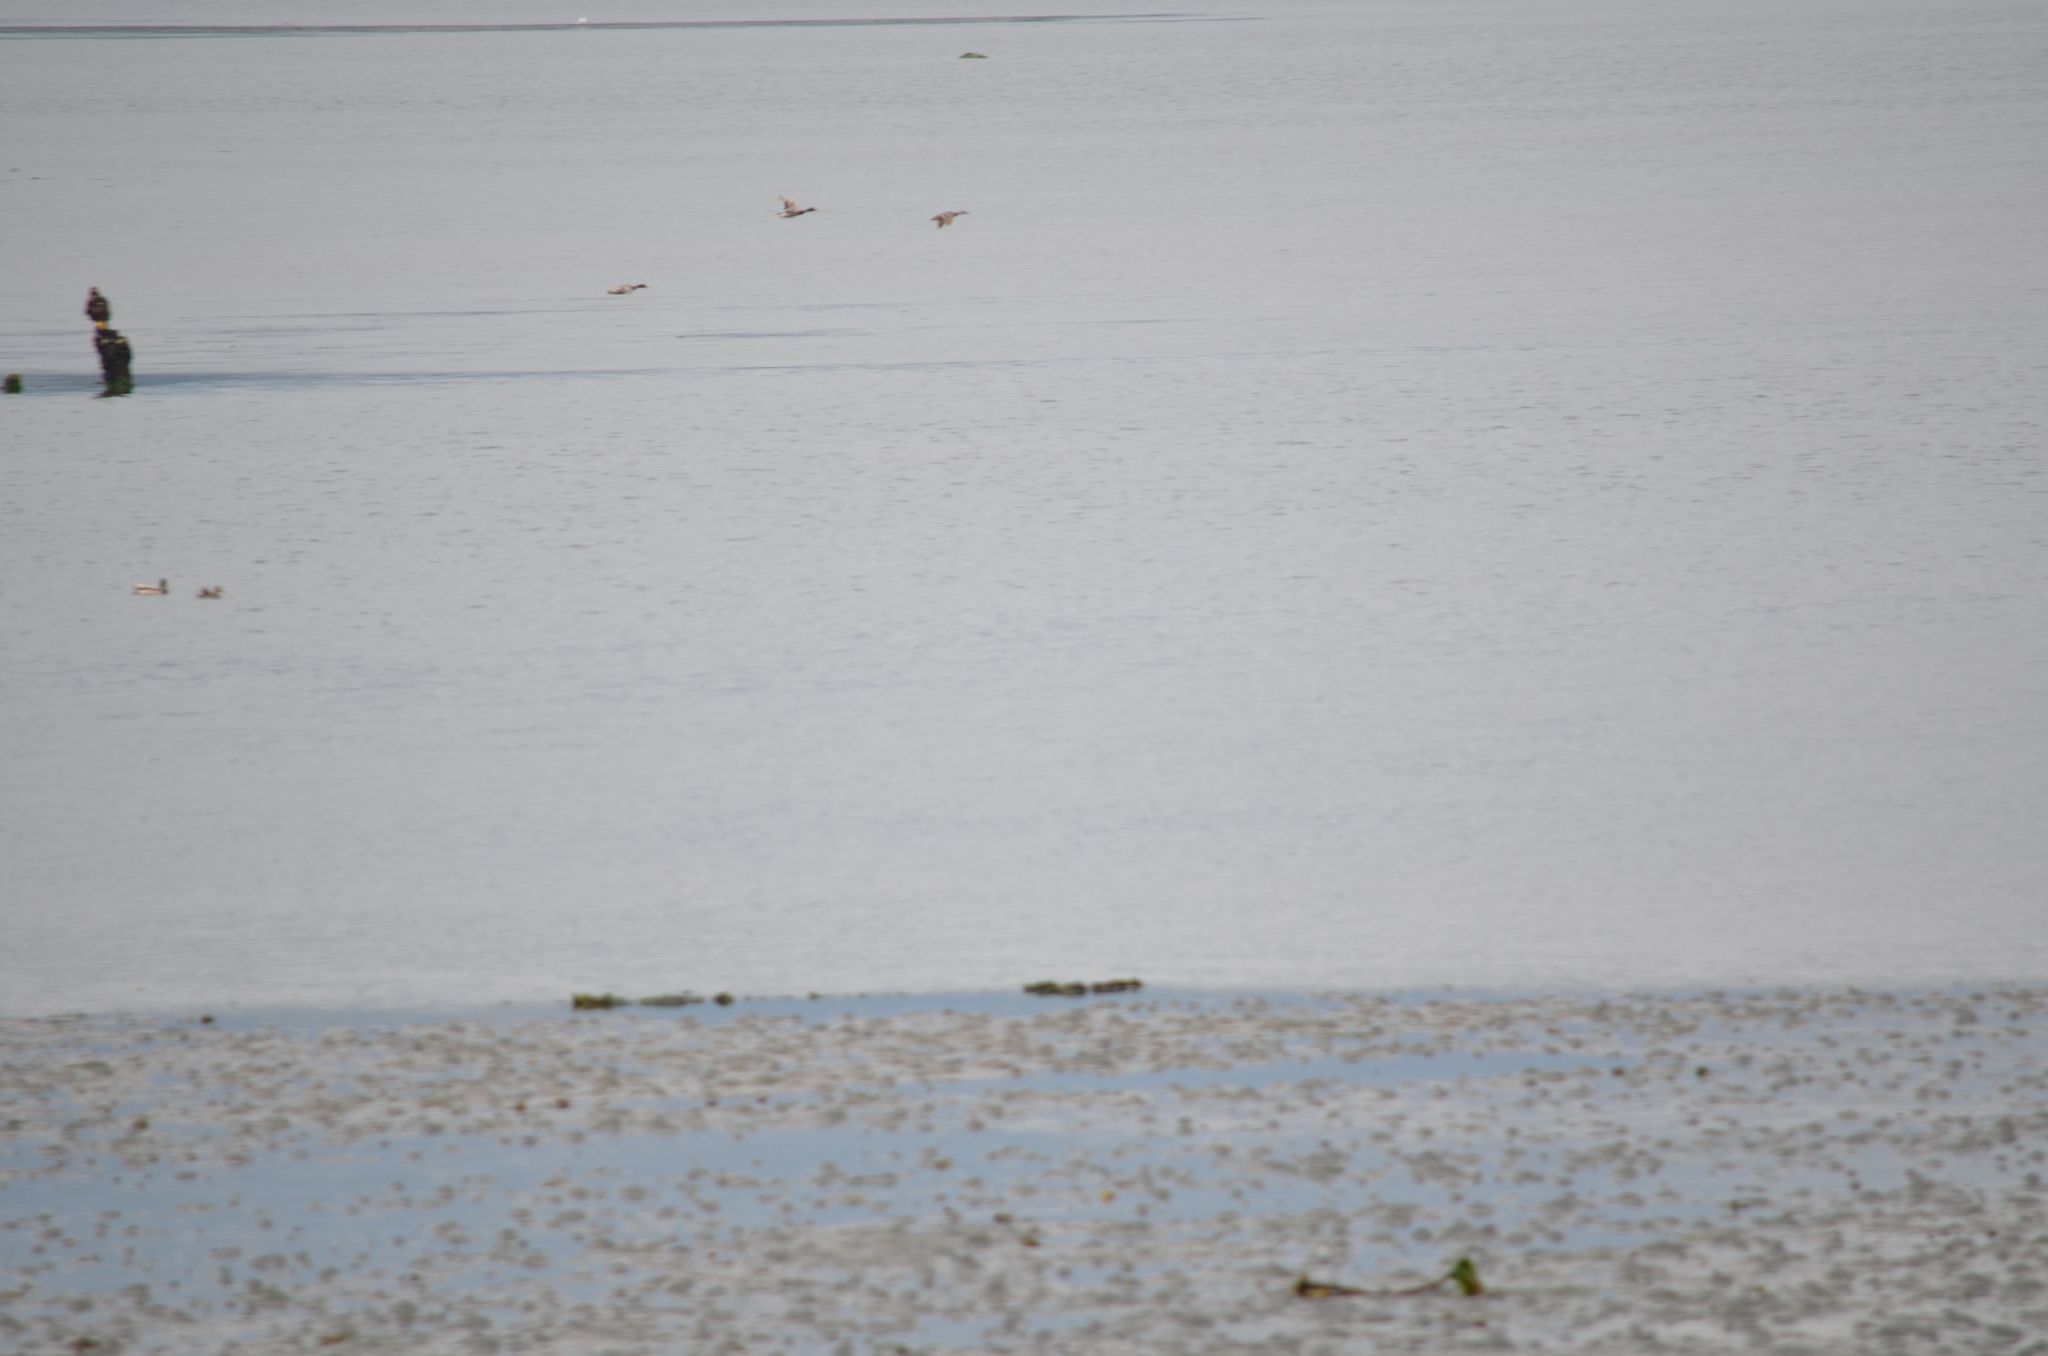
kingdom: Animalia
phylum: Chordata
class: Aves
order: Anseriformes
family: Anatidae
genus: Anas
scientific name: Anas platyrhynchos
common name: Mallard
